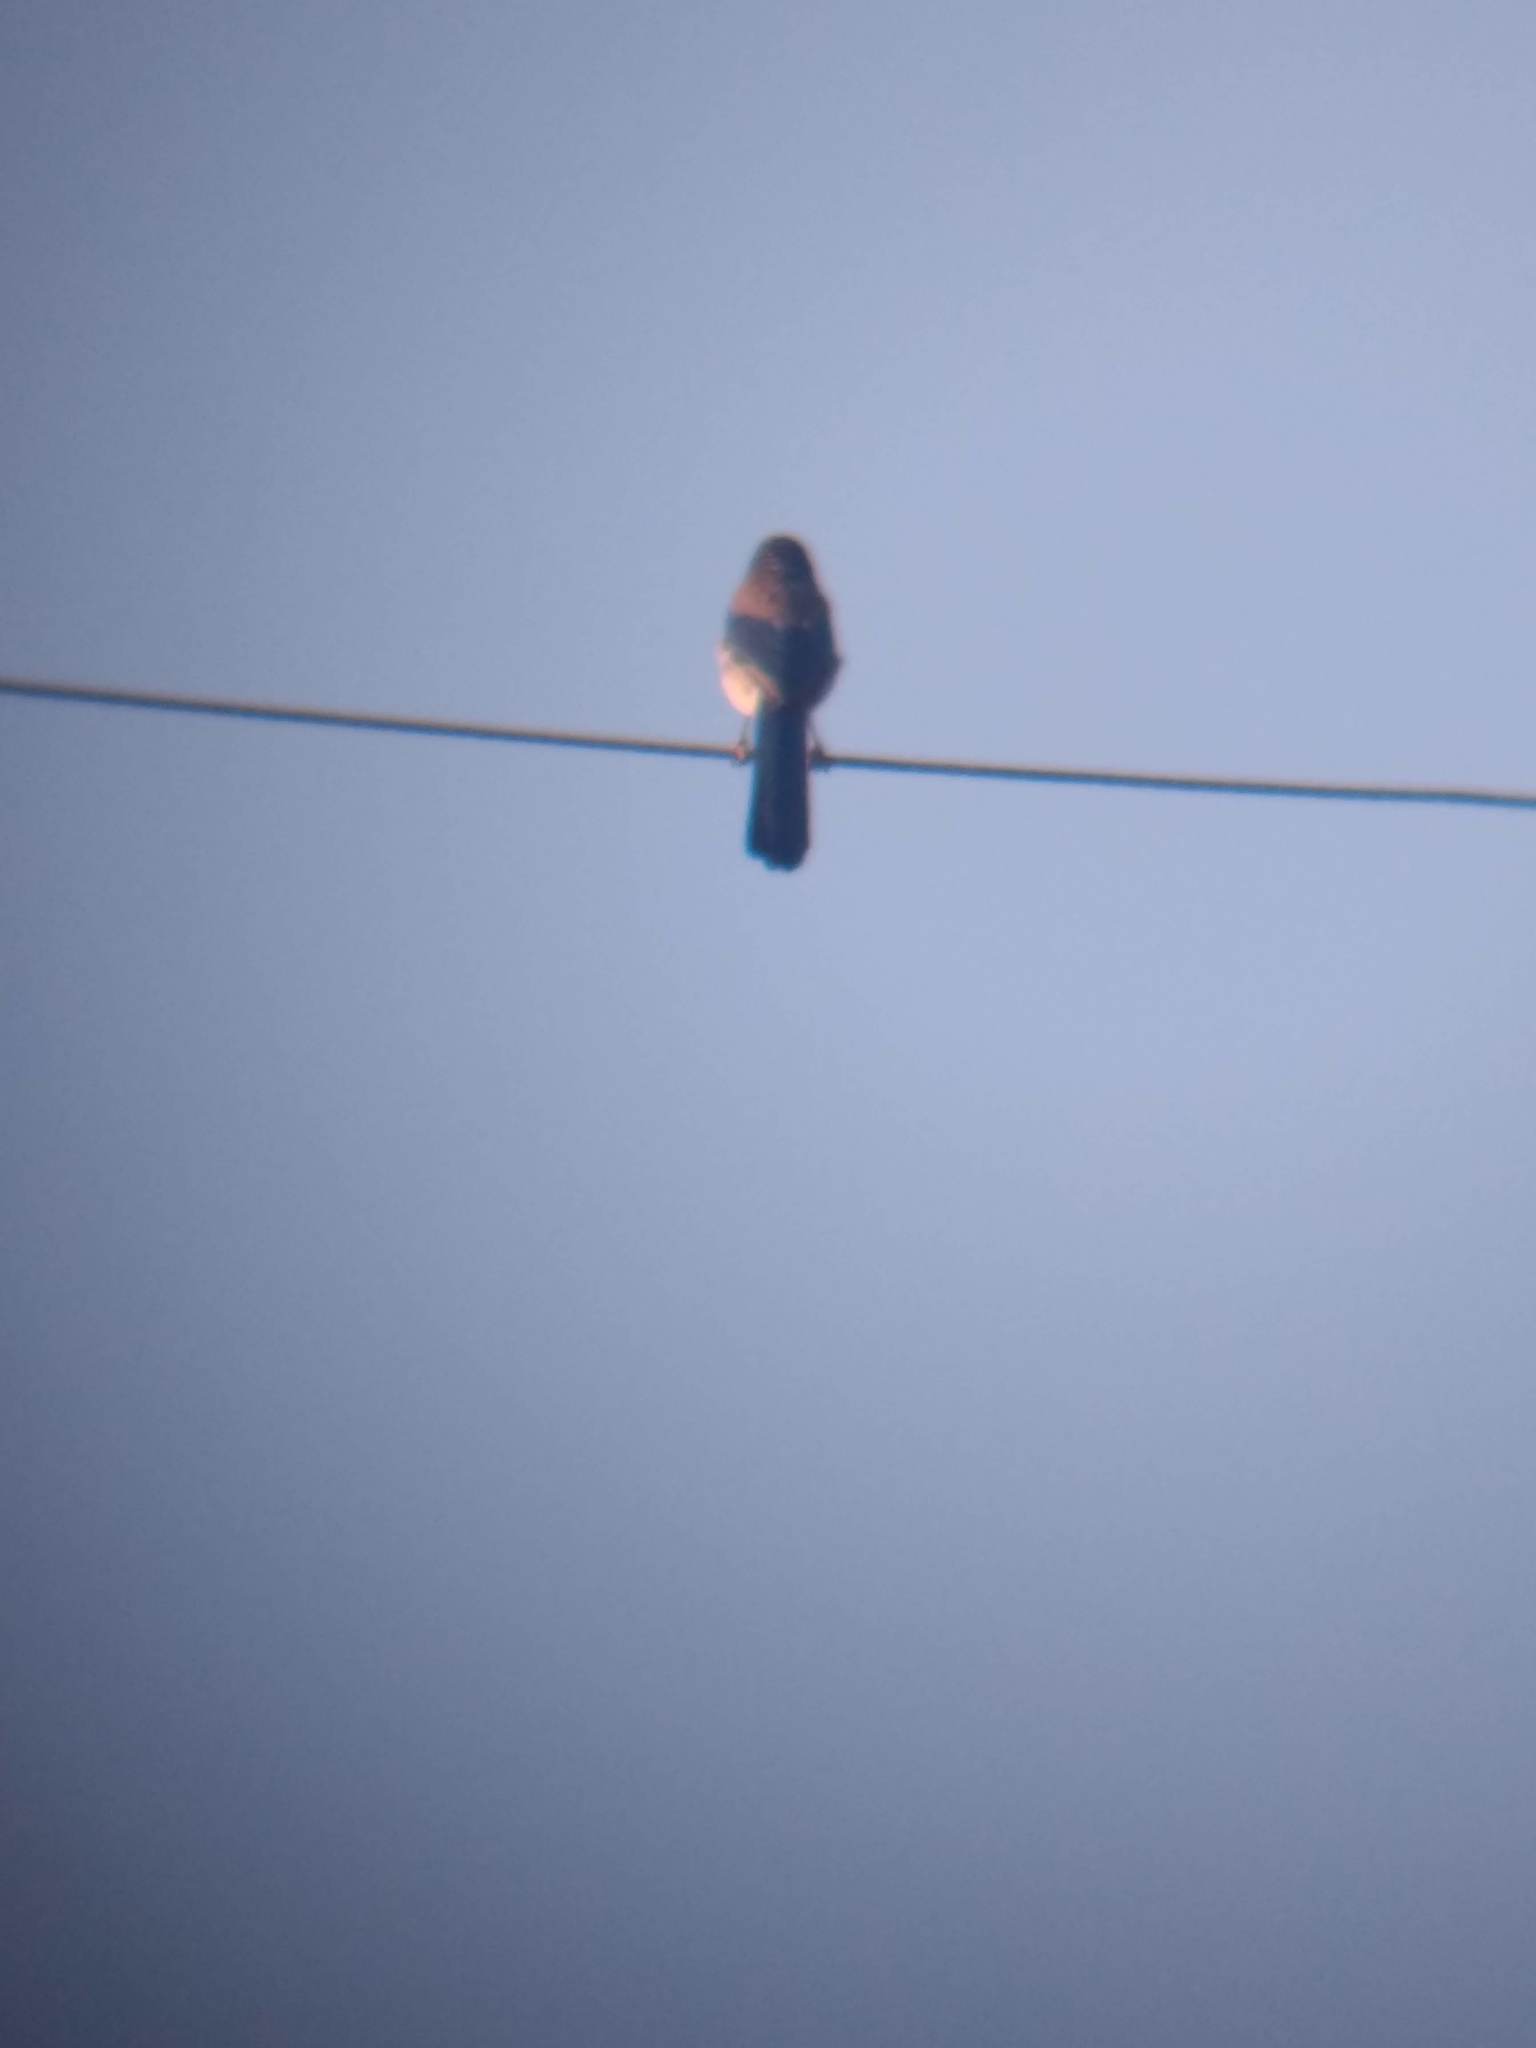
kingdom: Animalia
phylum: Chordata
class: Aves
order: Passeriformes
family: Corvidae
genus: Aphelocoma
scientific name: Aphelocoma californica
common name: California scrub-jay
